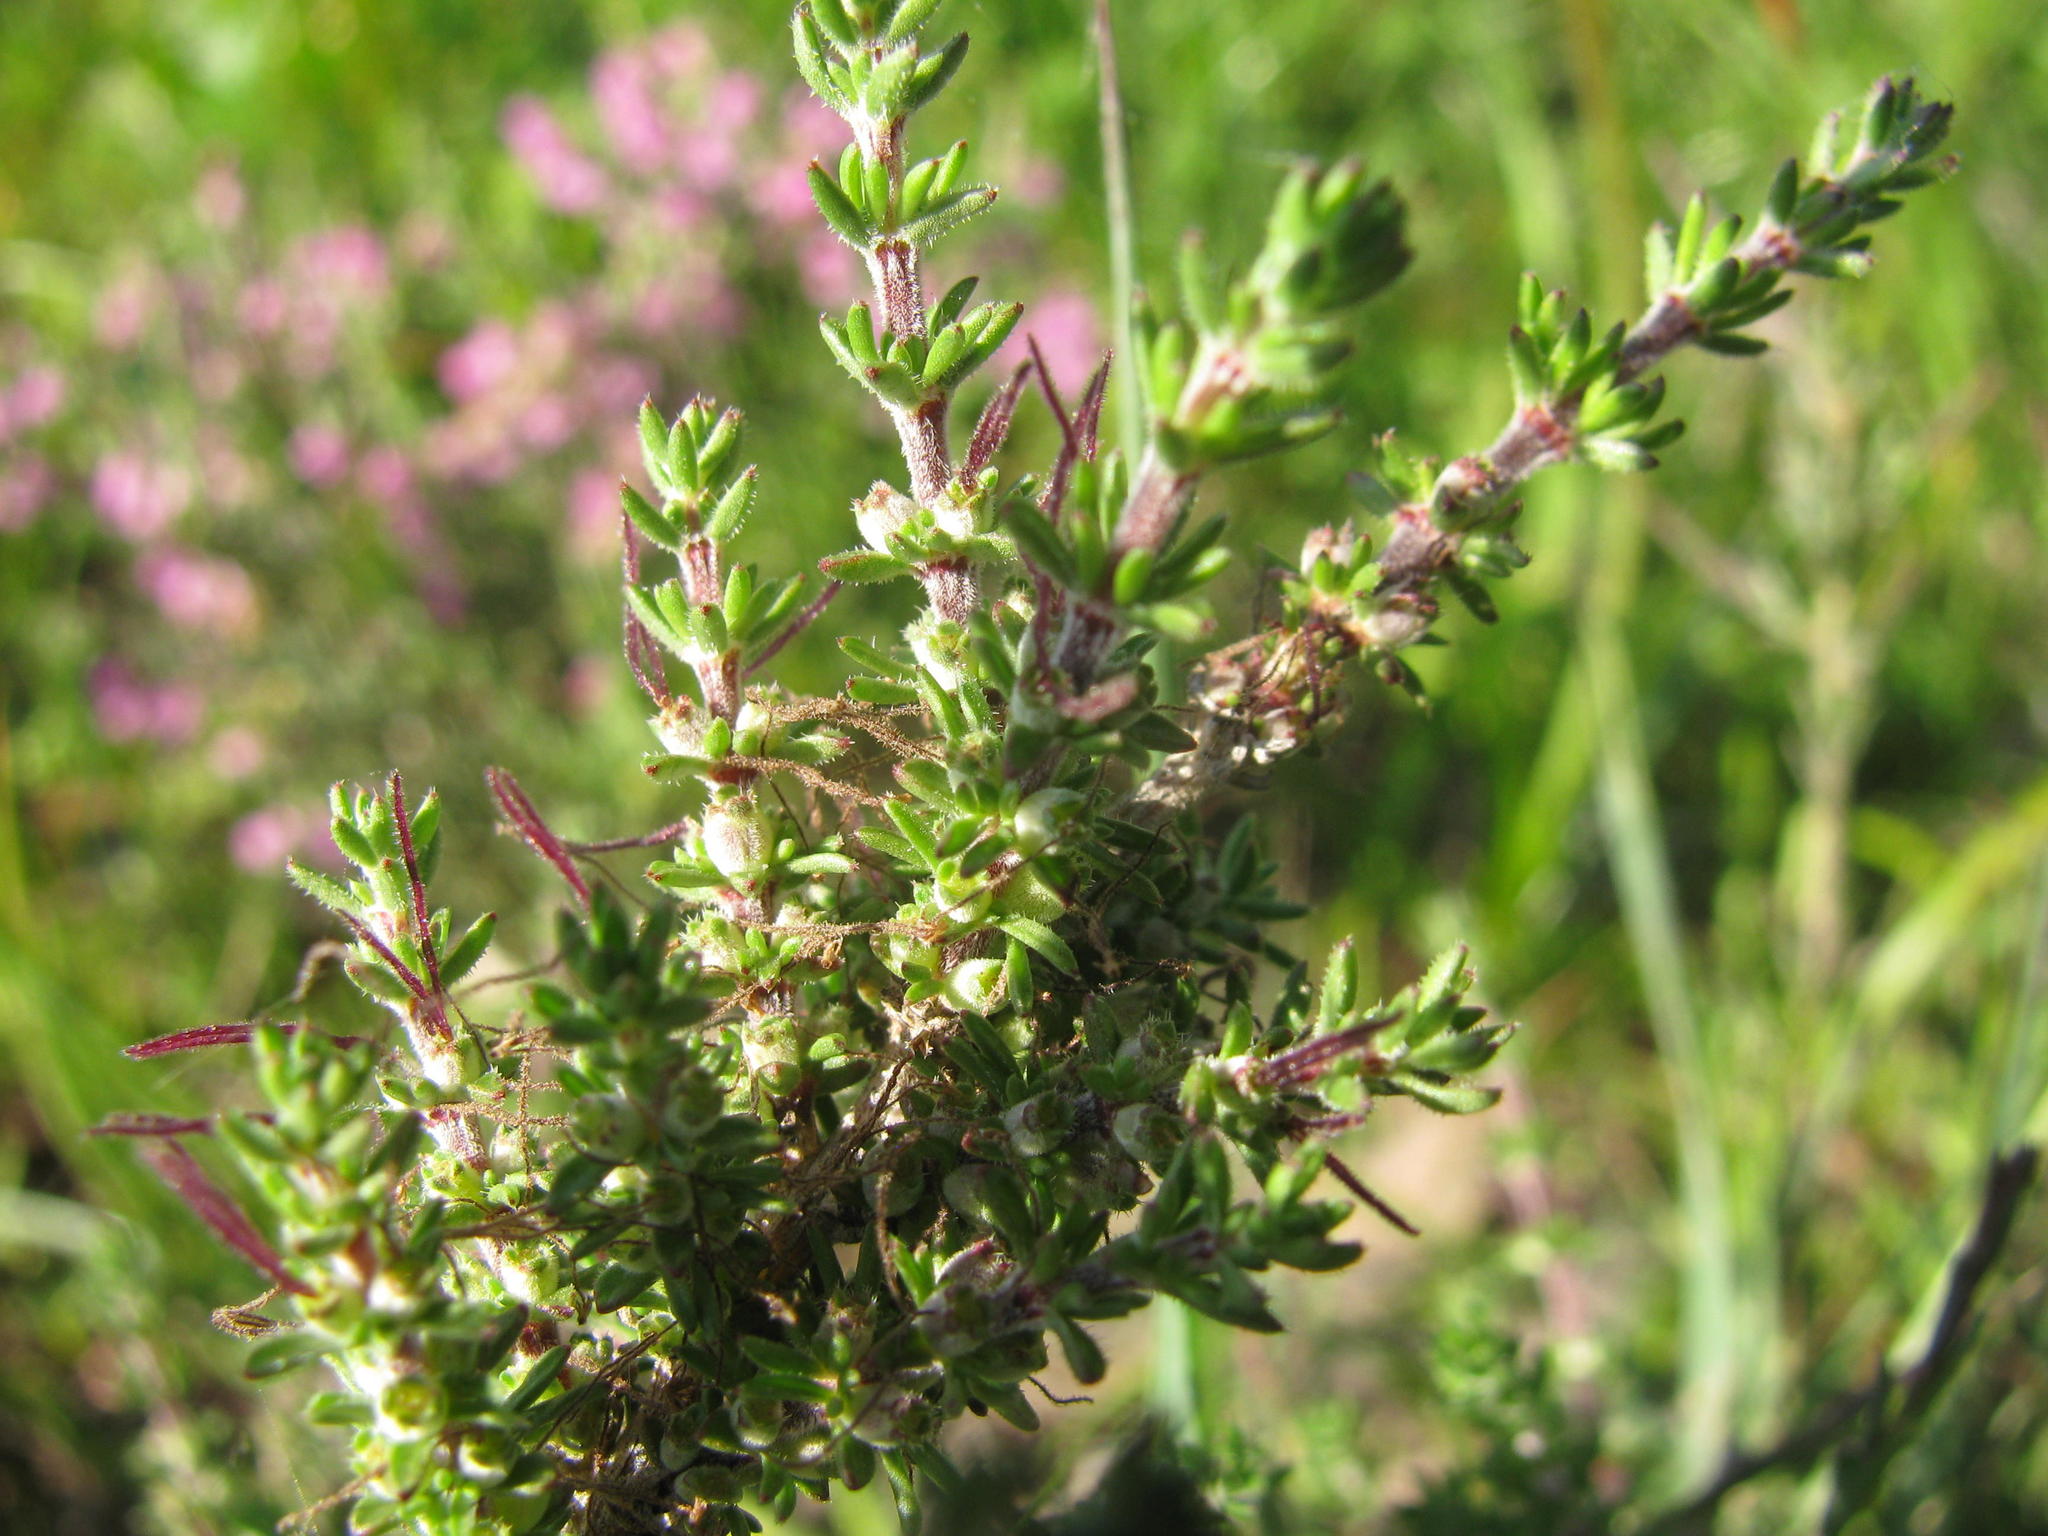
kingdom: Plantae
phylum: Tracheophyta
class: Magnoliopsida
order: Gentianales
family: Rubiaceae
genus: Nenax
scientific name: Nenax hirta
